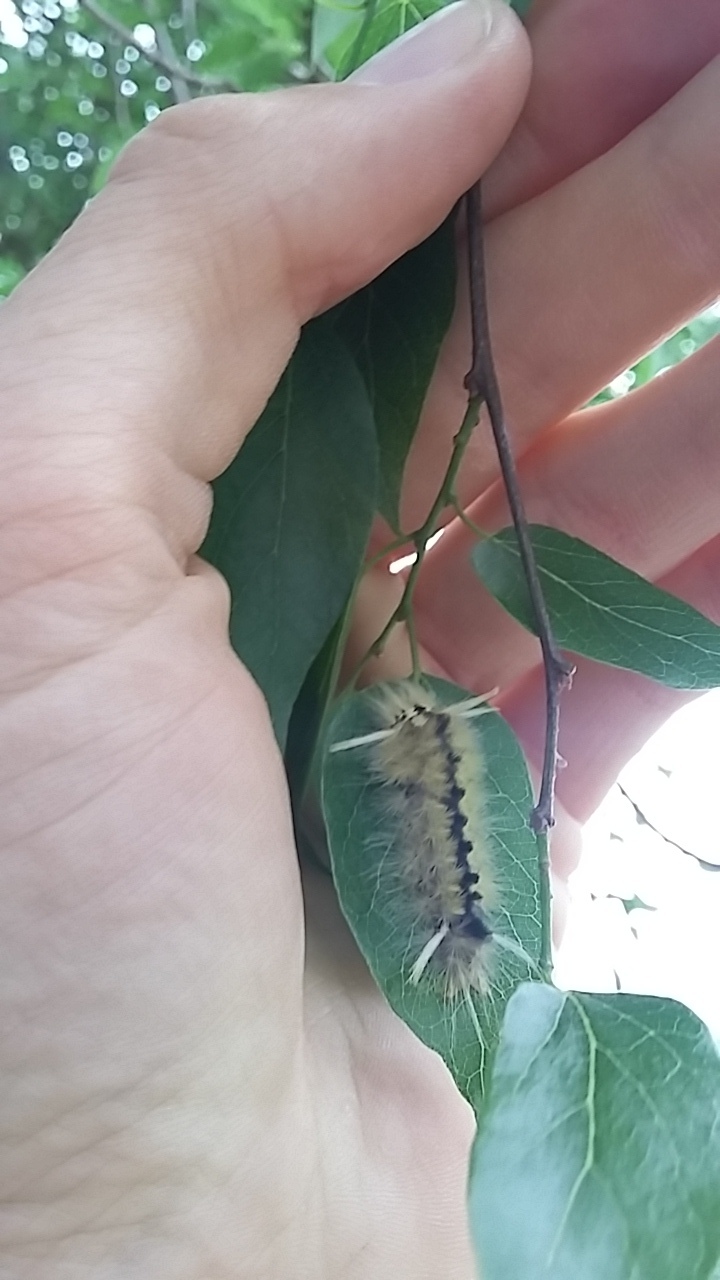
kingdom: Animalia
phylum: Arthropoda
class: Insecta
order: Lepidoptera
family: Erebidae
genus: Halysidota
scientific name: Halysidota schausi
